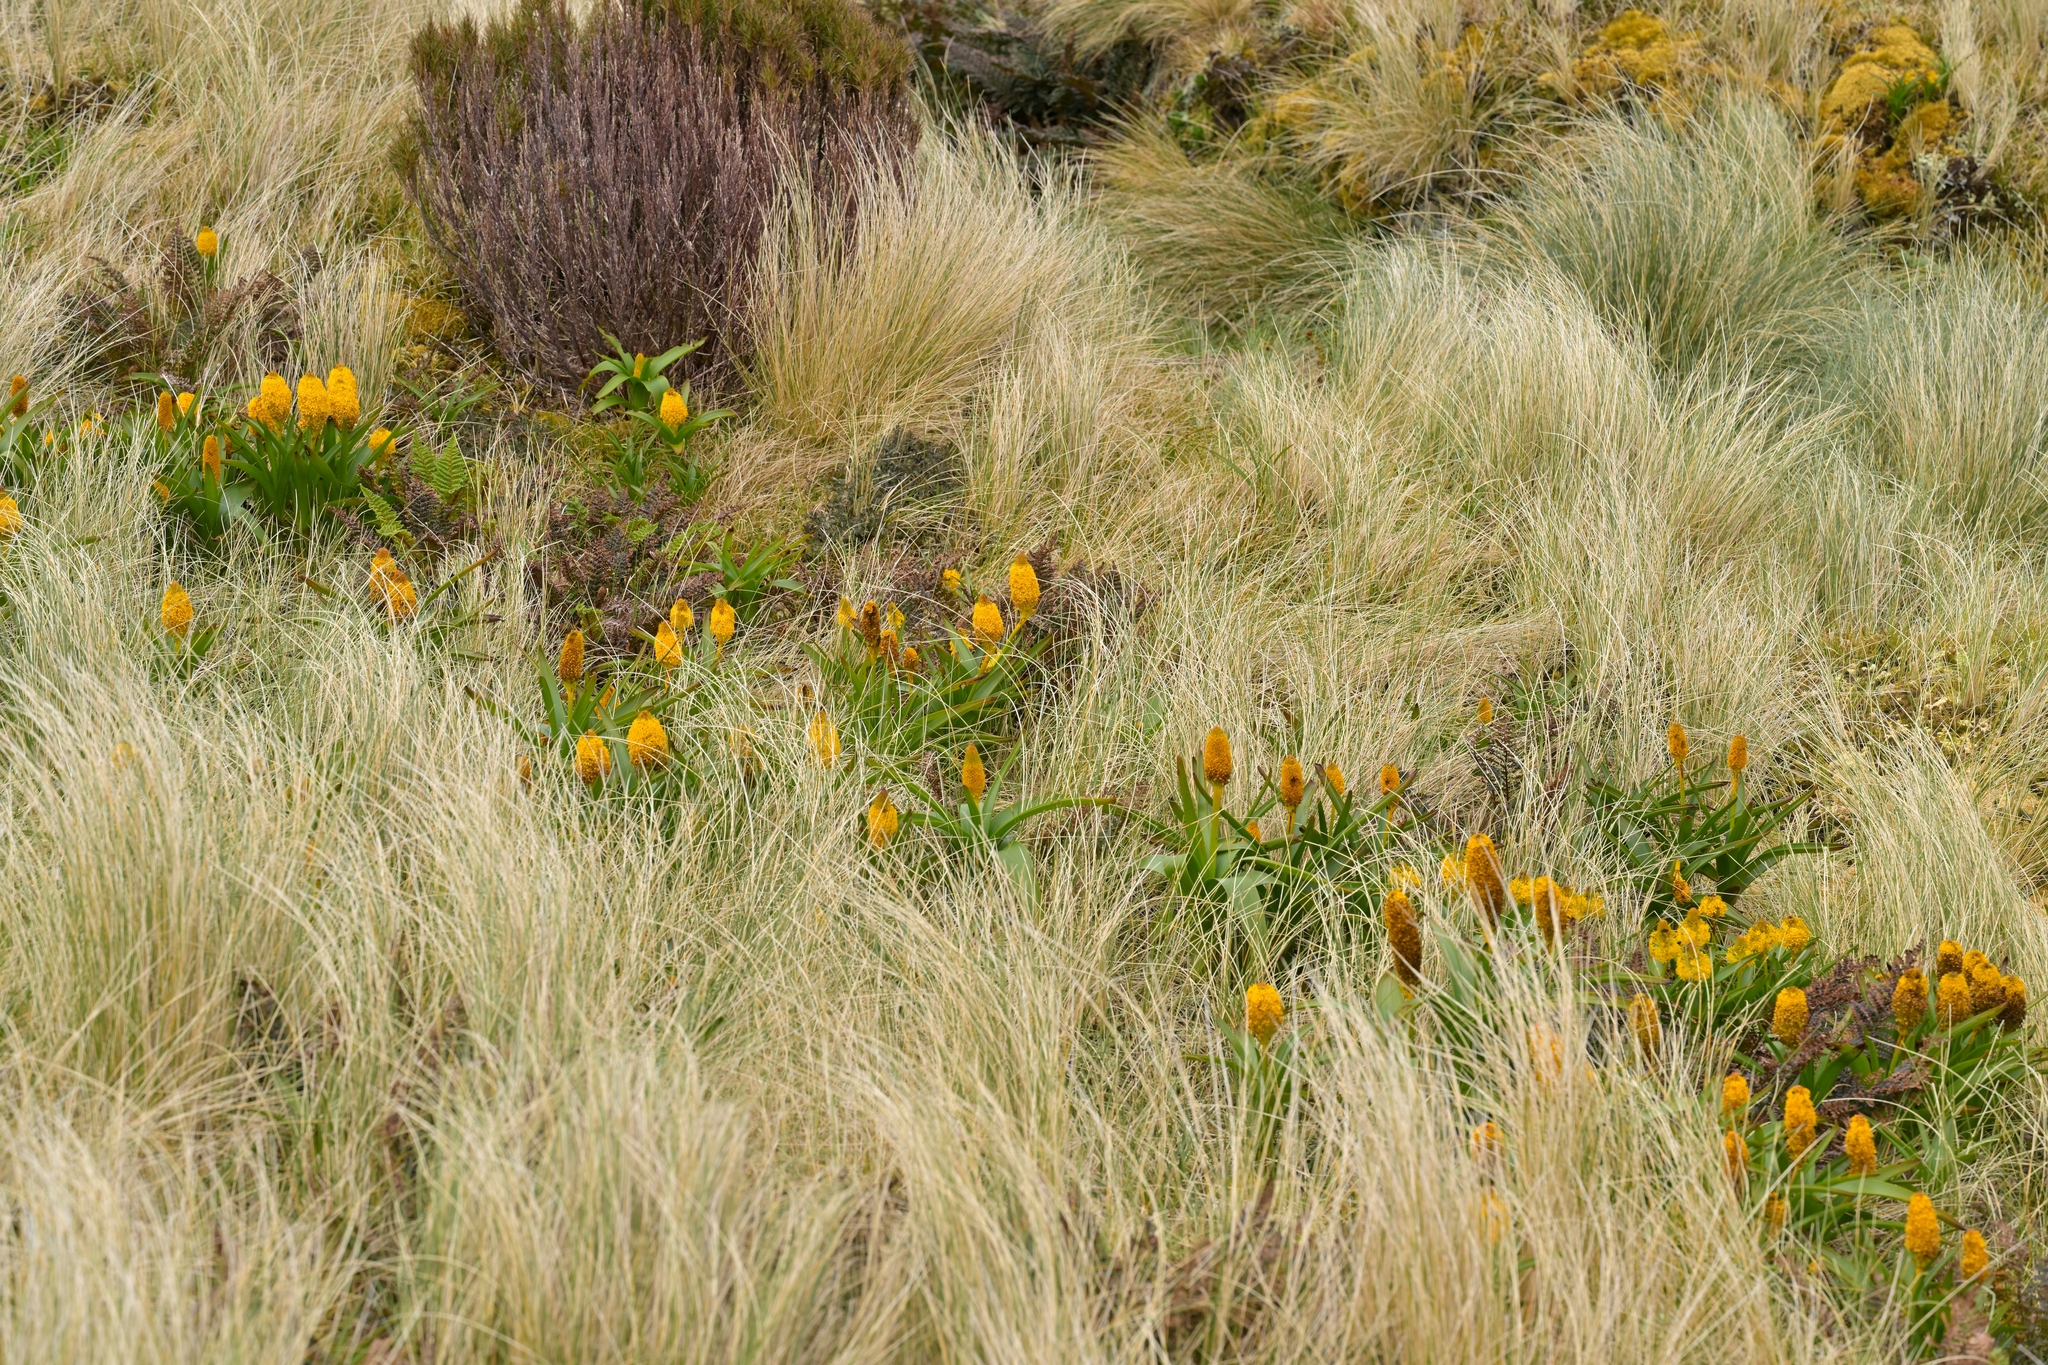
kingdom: Plantae
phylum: Tracheophyta
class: Liliopsida
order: Asparagales
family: Asphodelaceae
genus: Bulbinella
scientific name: Bulbinella rossii
